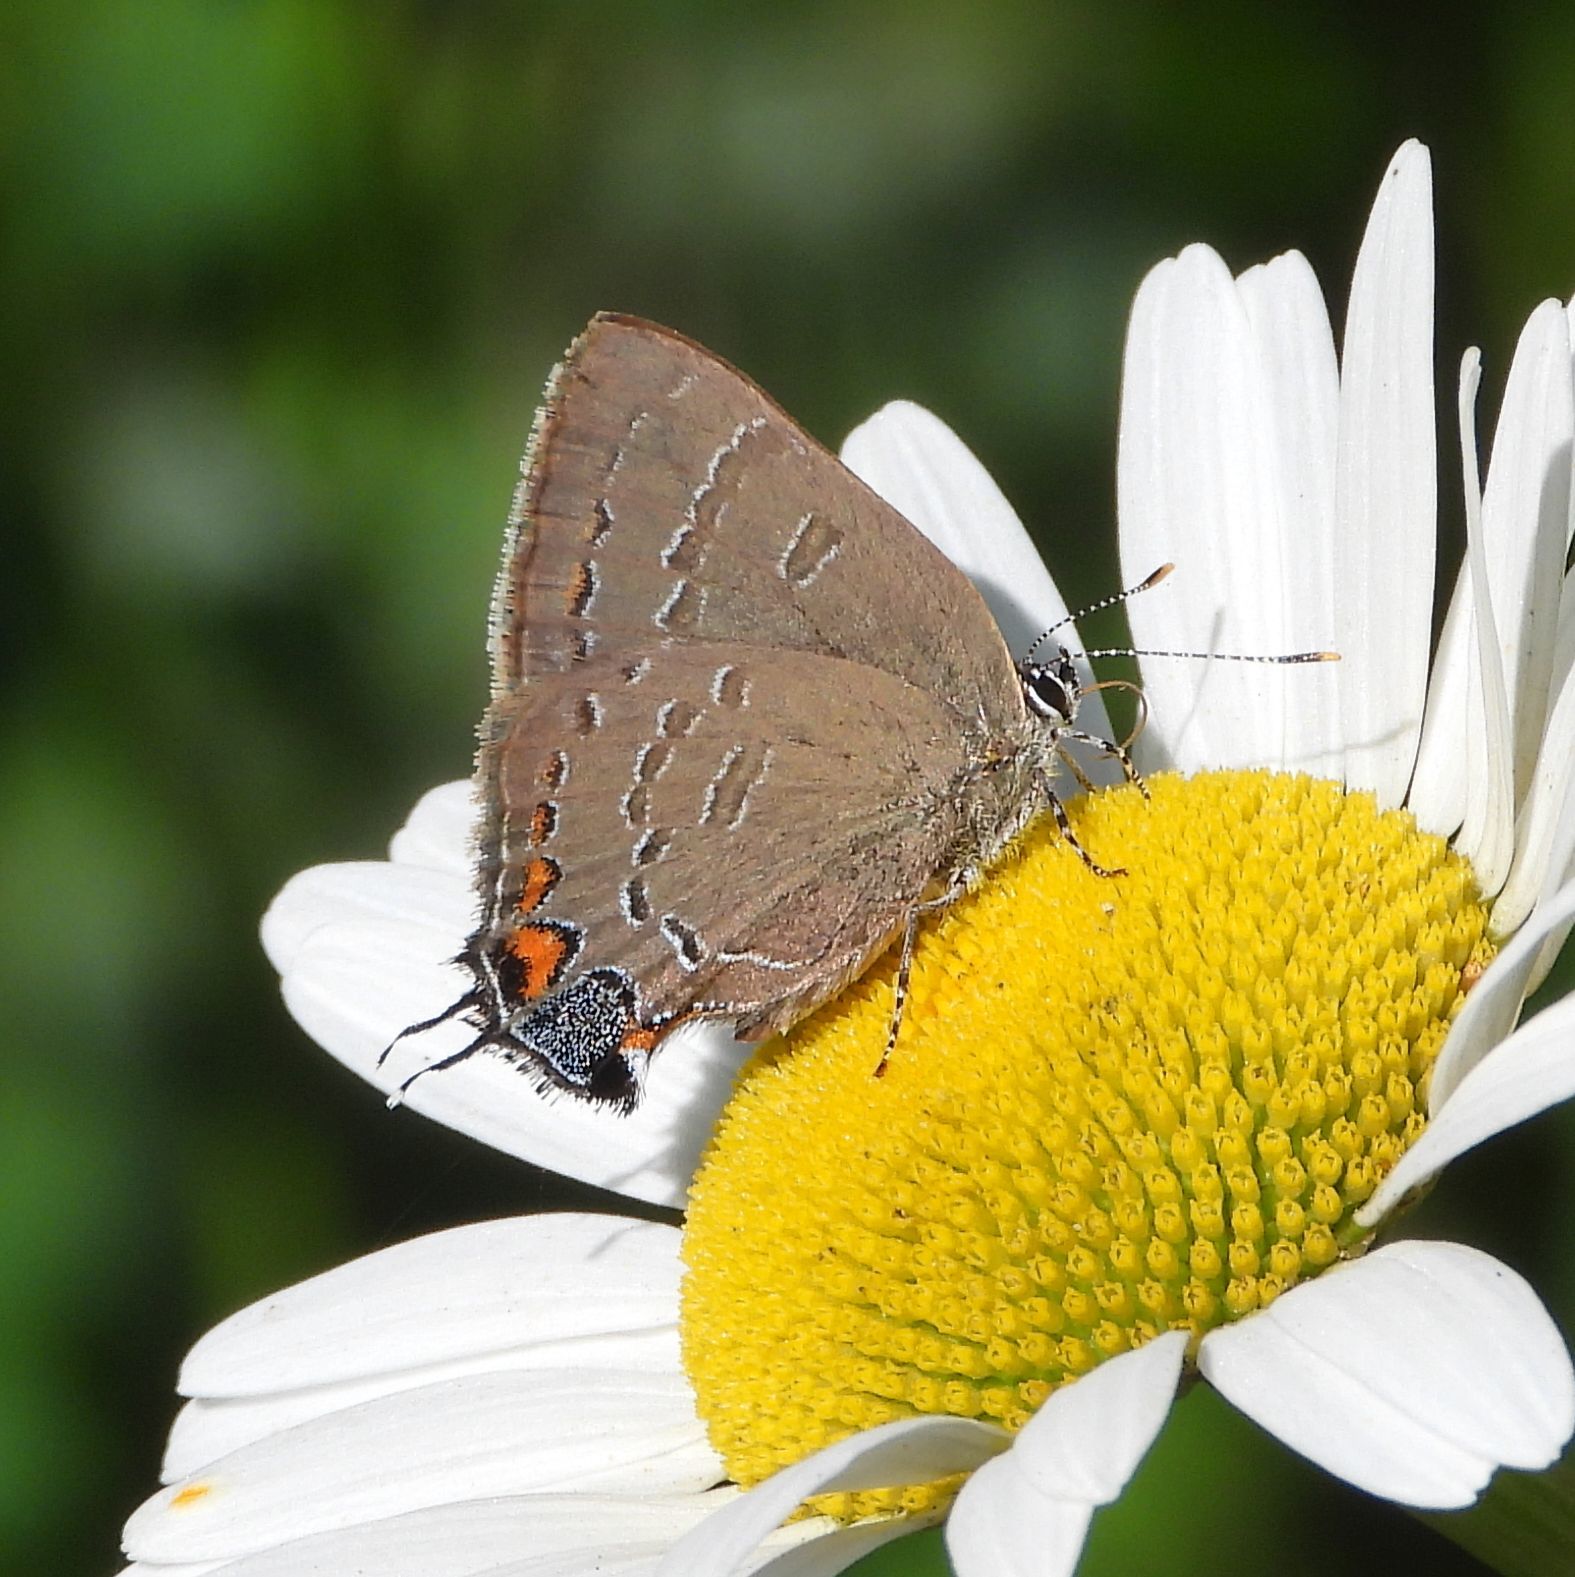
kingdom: Animalia
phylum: Arthropoda
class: Insecta
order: Lepidoptera
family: Lycaenidae
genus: Satyrium
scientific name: Satyrium calanus
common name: Banded hairstreak
